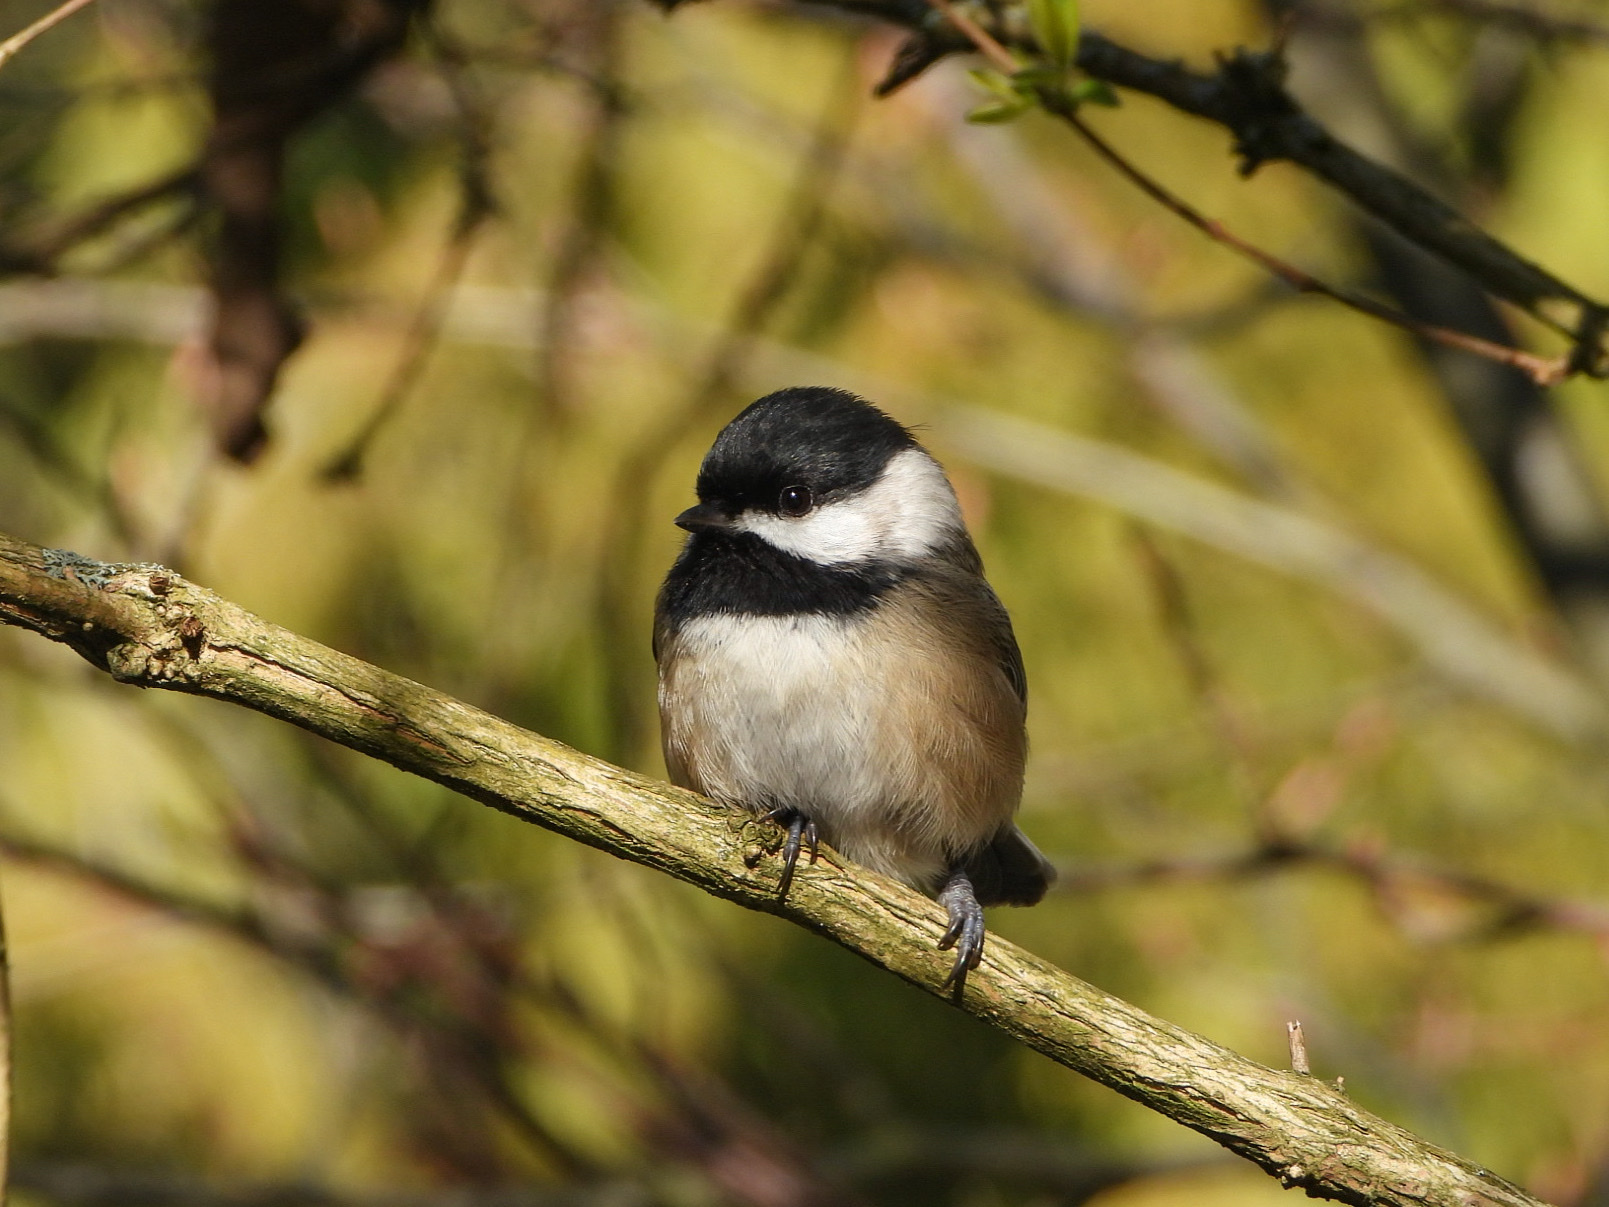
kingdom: Animalia
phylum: Chordata
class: Aves
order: Passeriformes
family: Paridae
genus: Poecile
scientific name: Poecile atricapillus
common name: Black-capped chickadee
